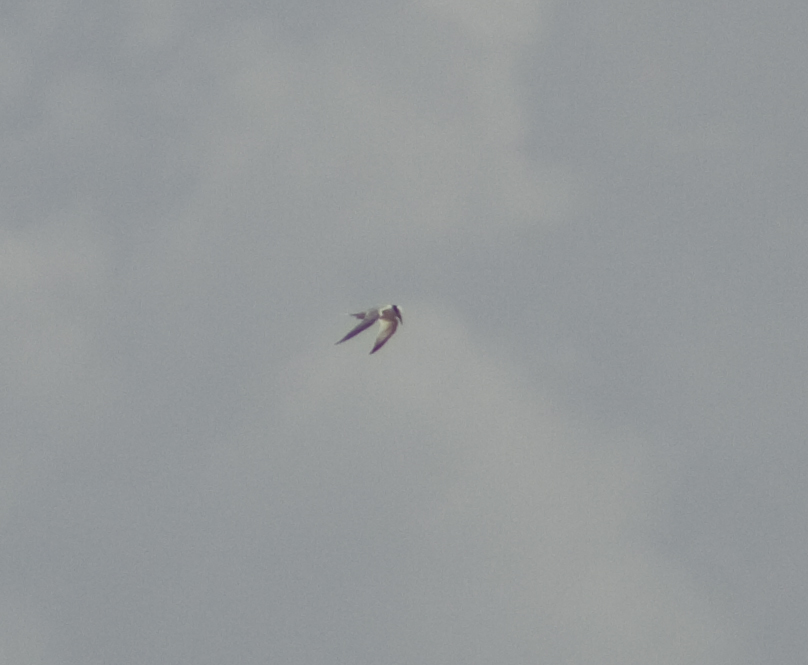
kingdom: Animalia
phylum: Chordata
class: Aves
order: Charadriiformes
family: Laridae
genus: Sternula
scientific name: Sternula albifrons
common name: Little tern
